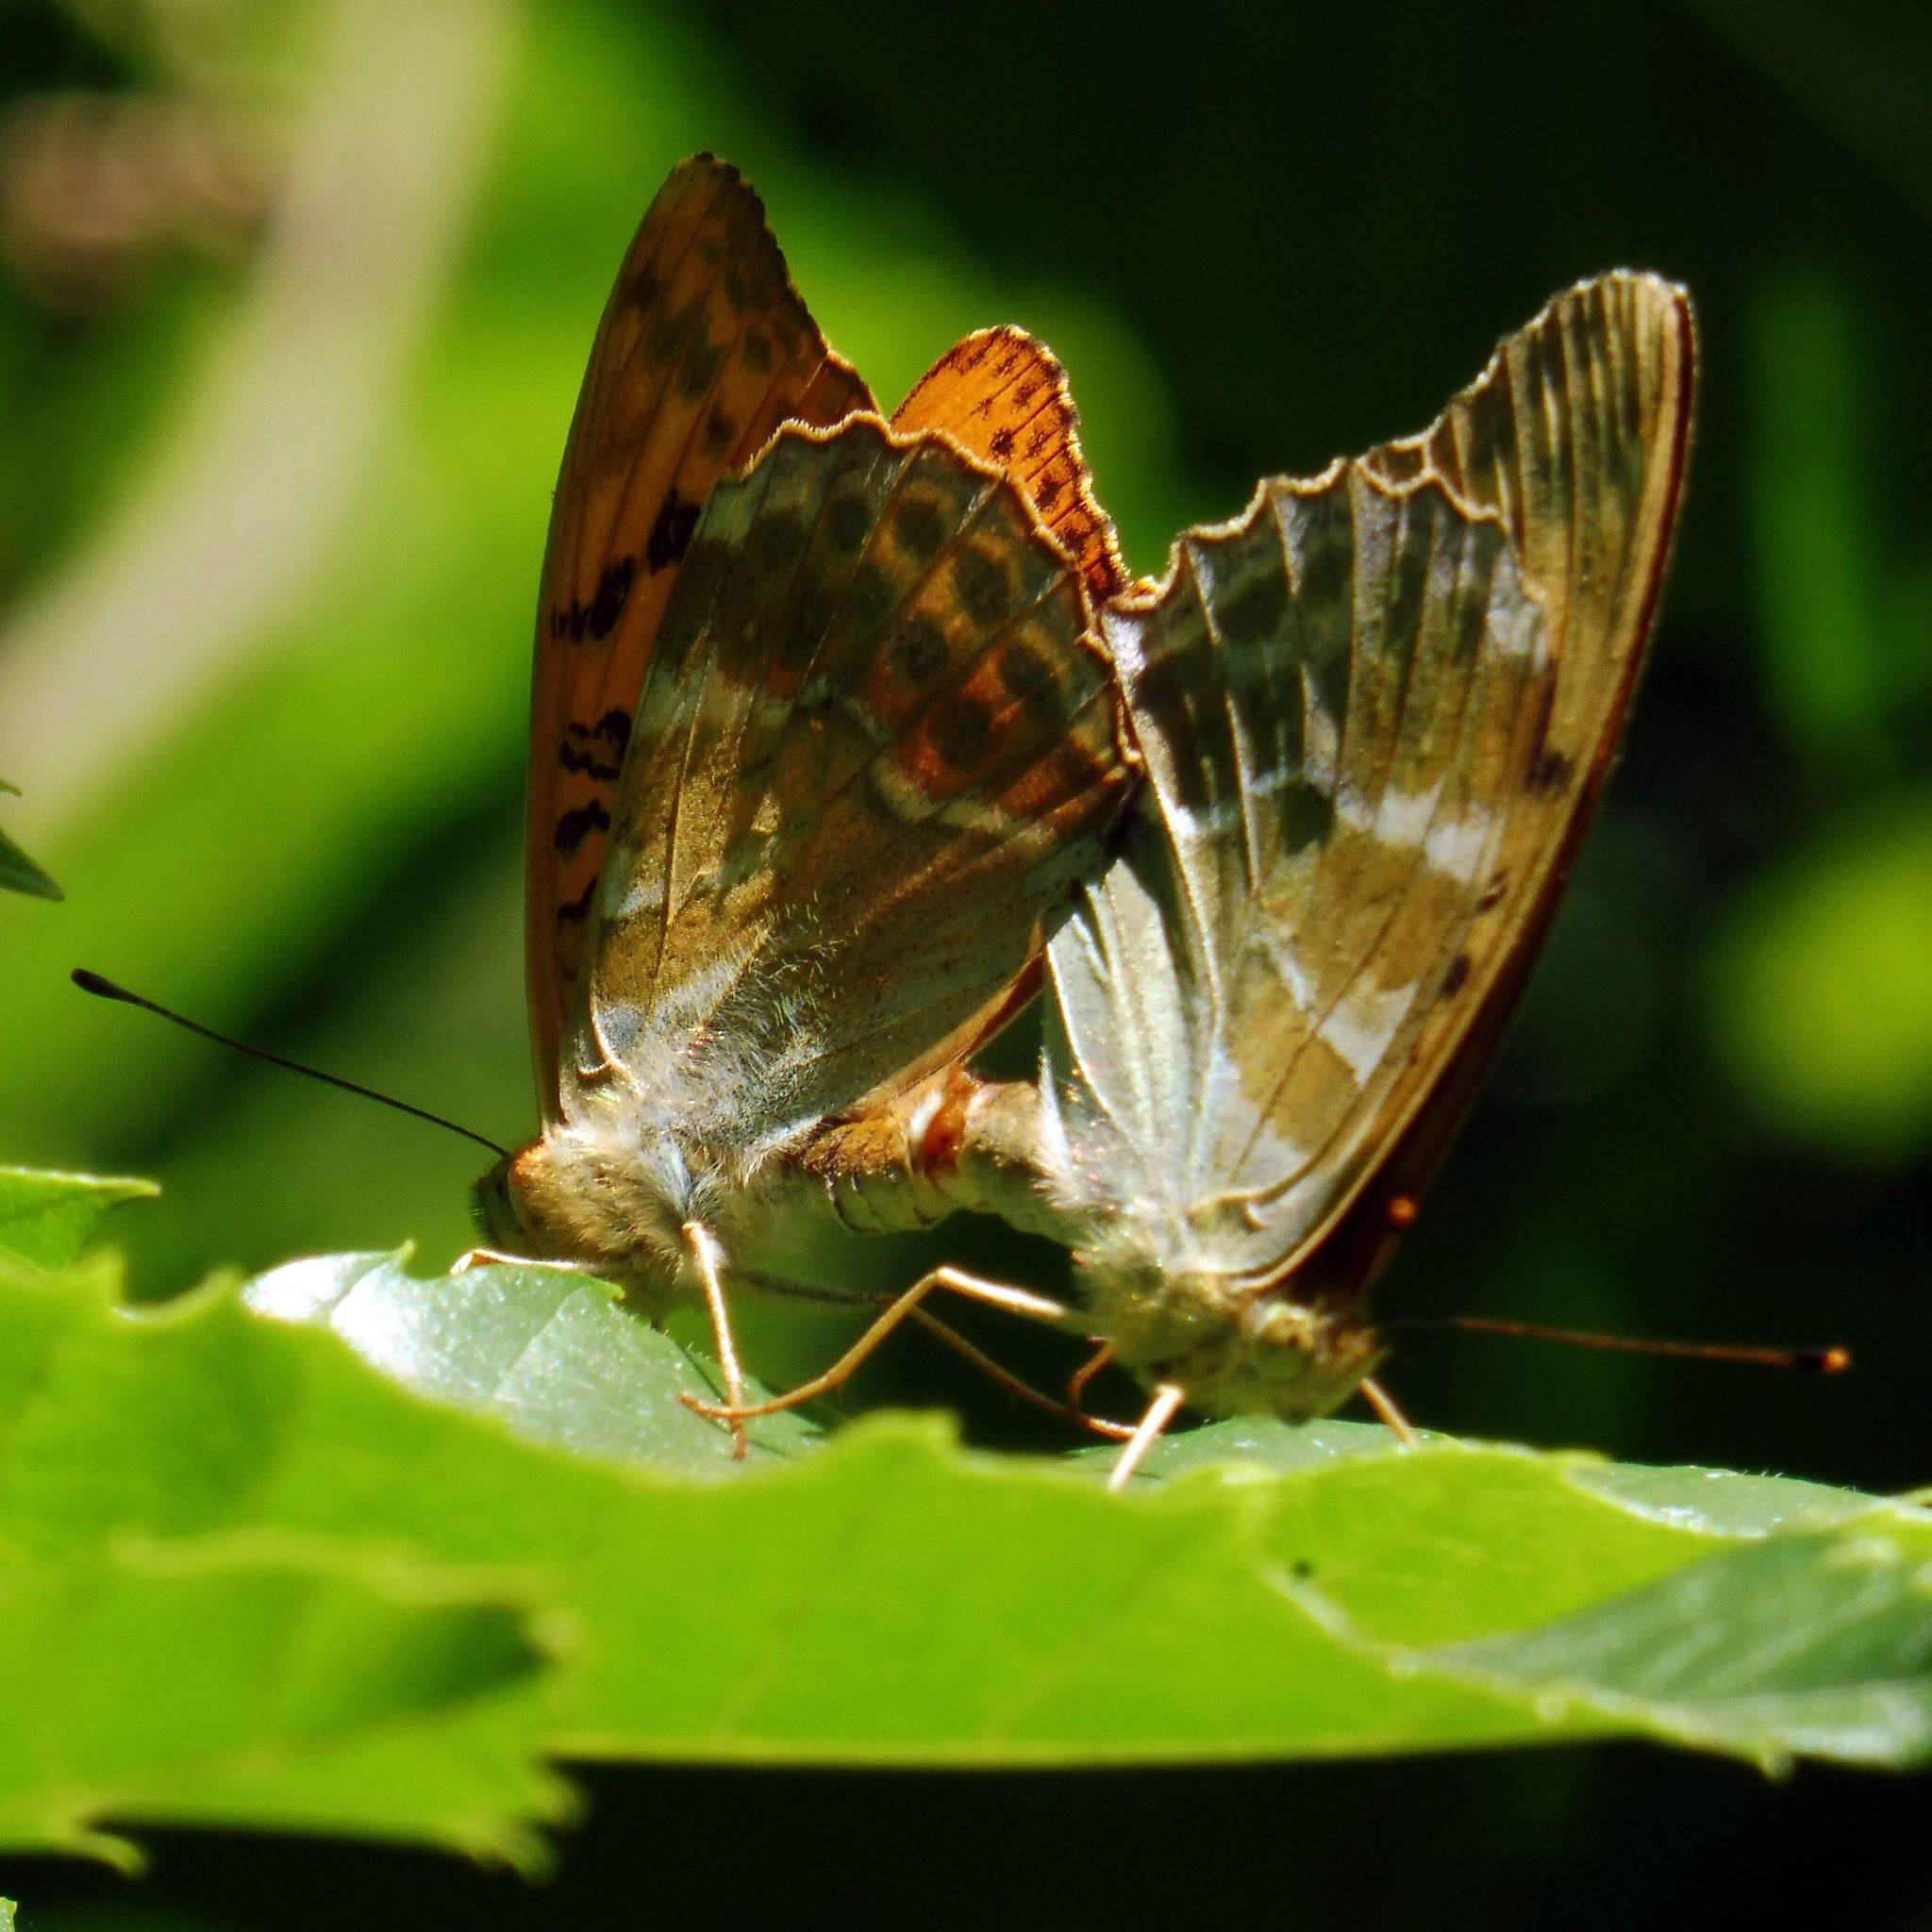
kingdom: Animalia
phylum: Arthropoda
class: Insecta
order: Lepidoptera
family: Nymphalidae
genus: Argynnis
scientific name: Argynnis paphia
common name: Silver-washed fritillary
